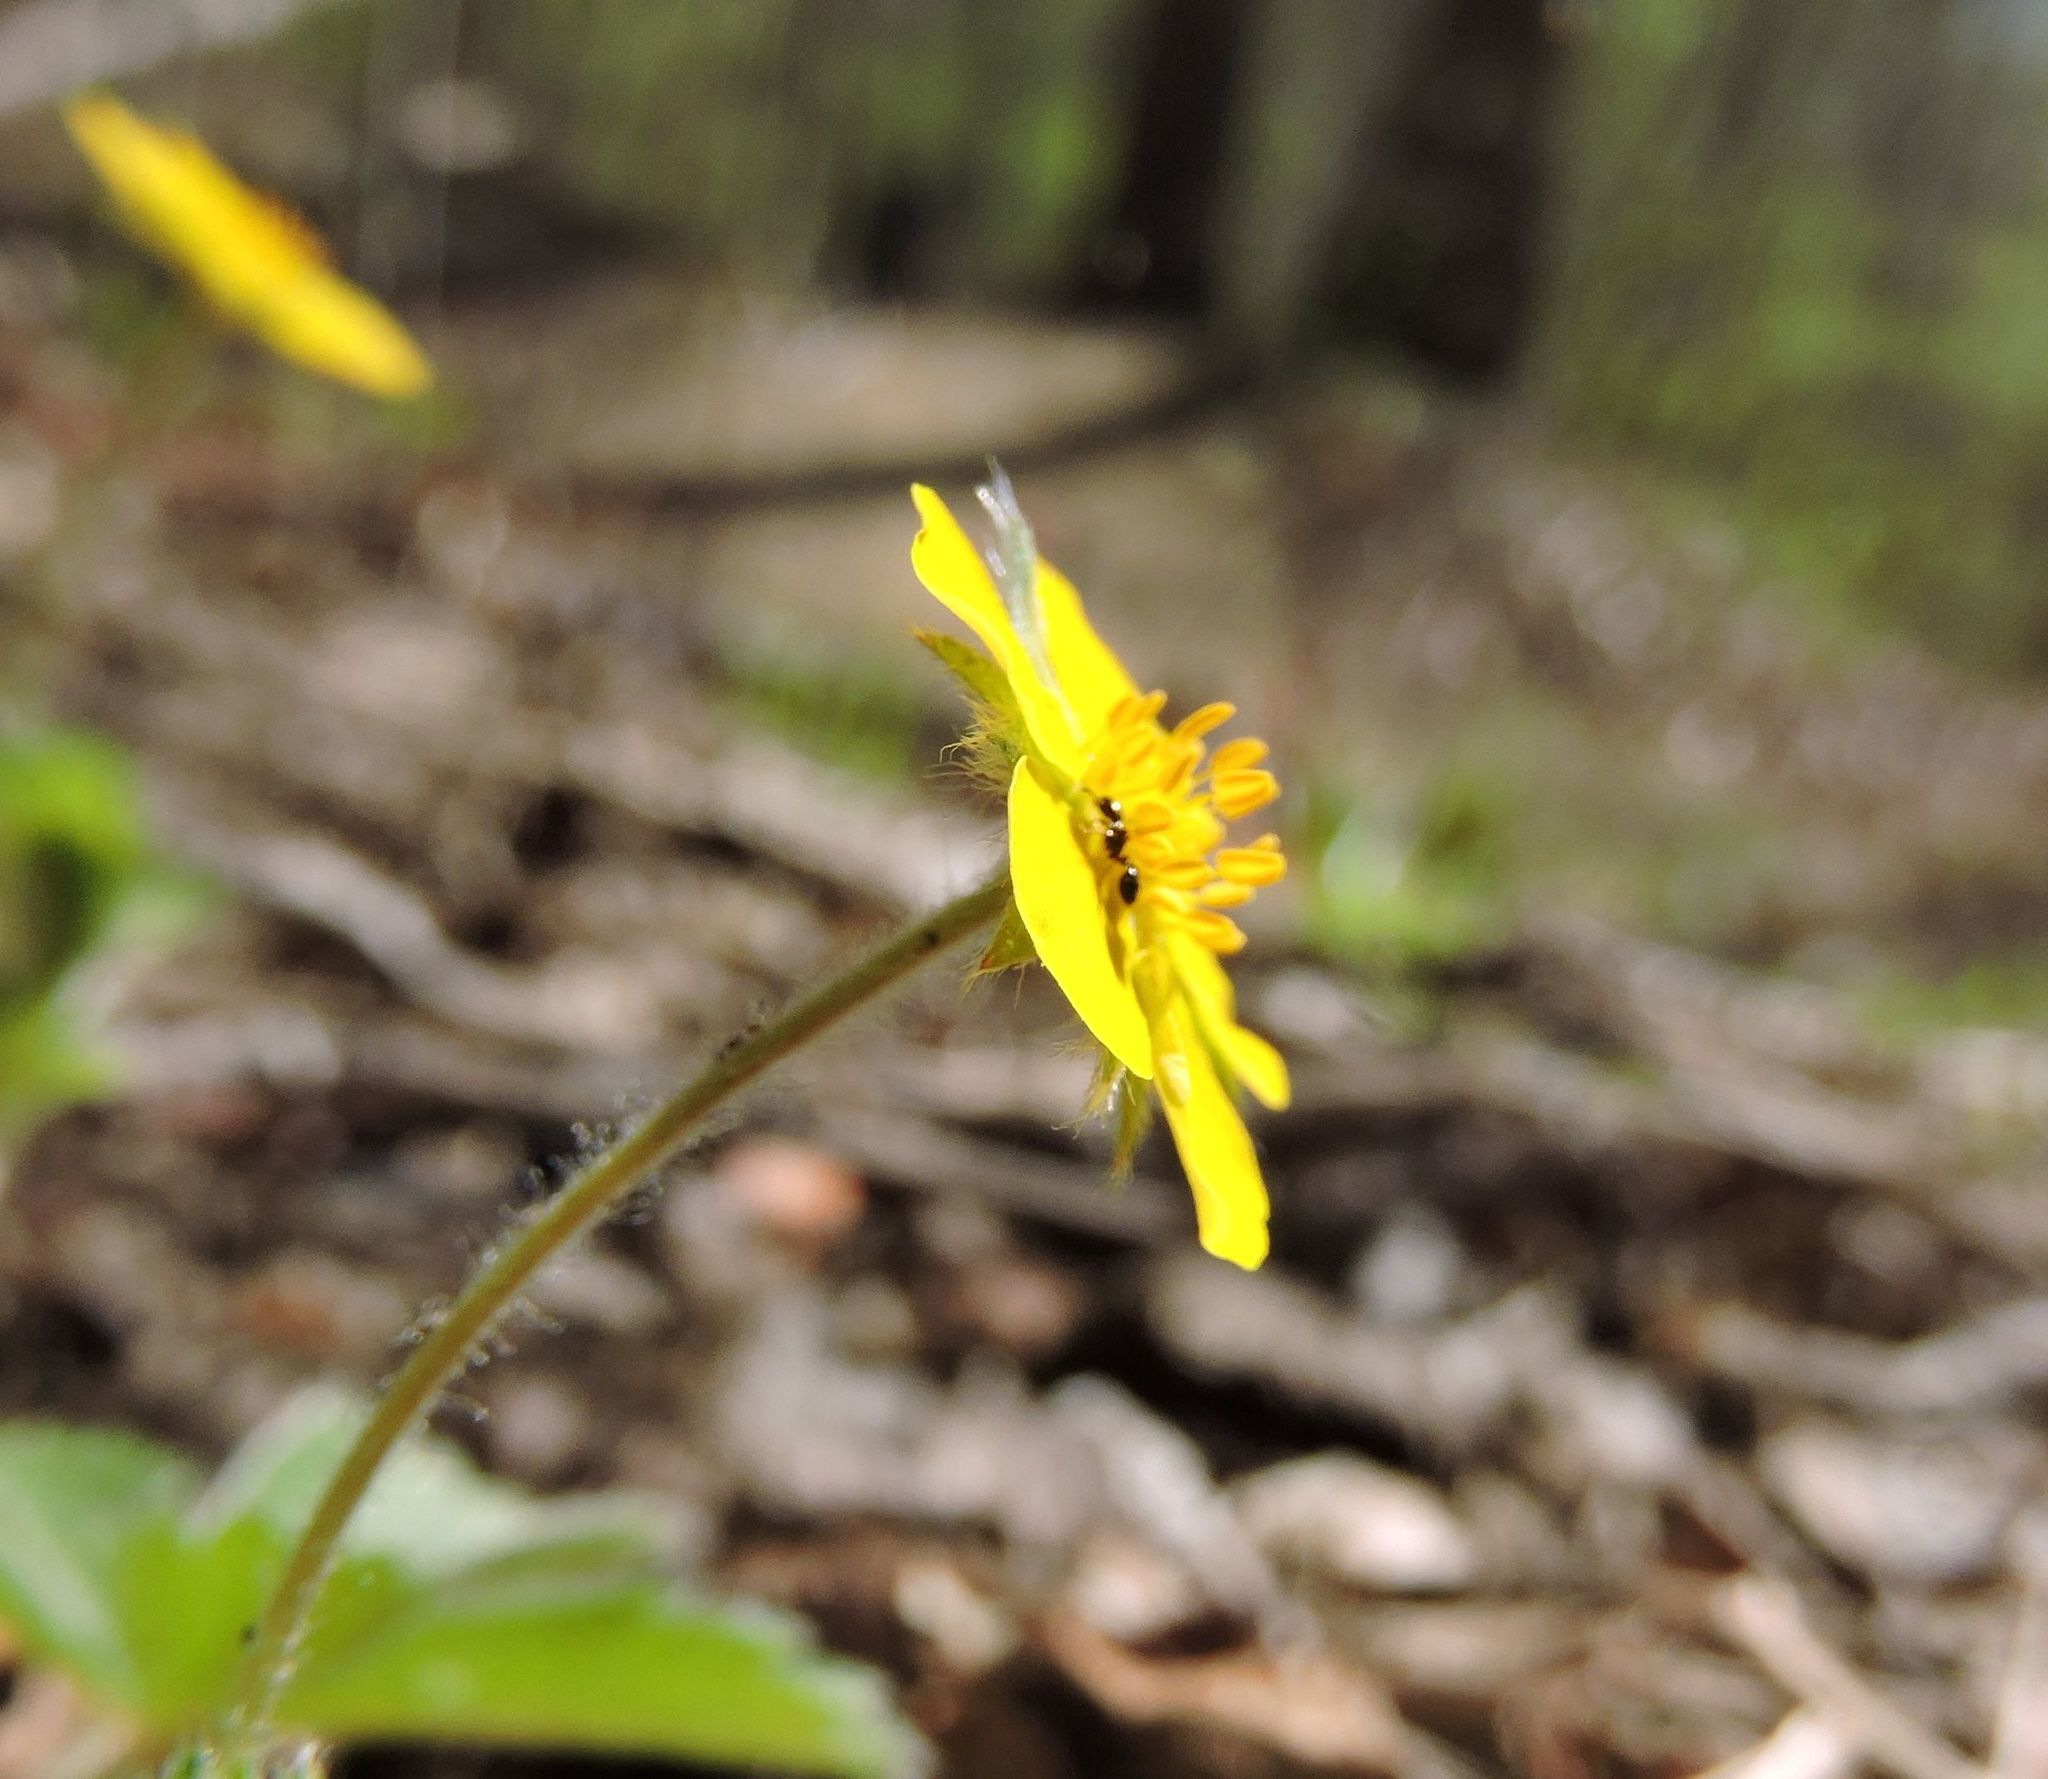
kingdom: Plantae
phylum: Tracheophyta
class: Magnoliopsida
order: Rosales
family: Rosaceae
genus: Potentilla
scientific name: Potentilla canadensis
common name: Canada cinquefoil
